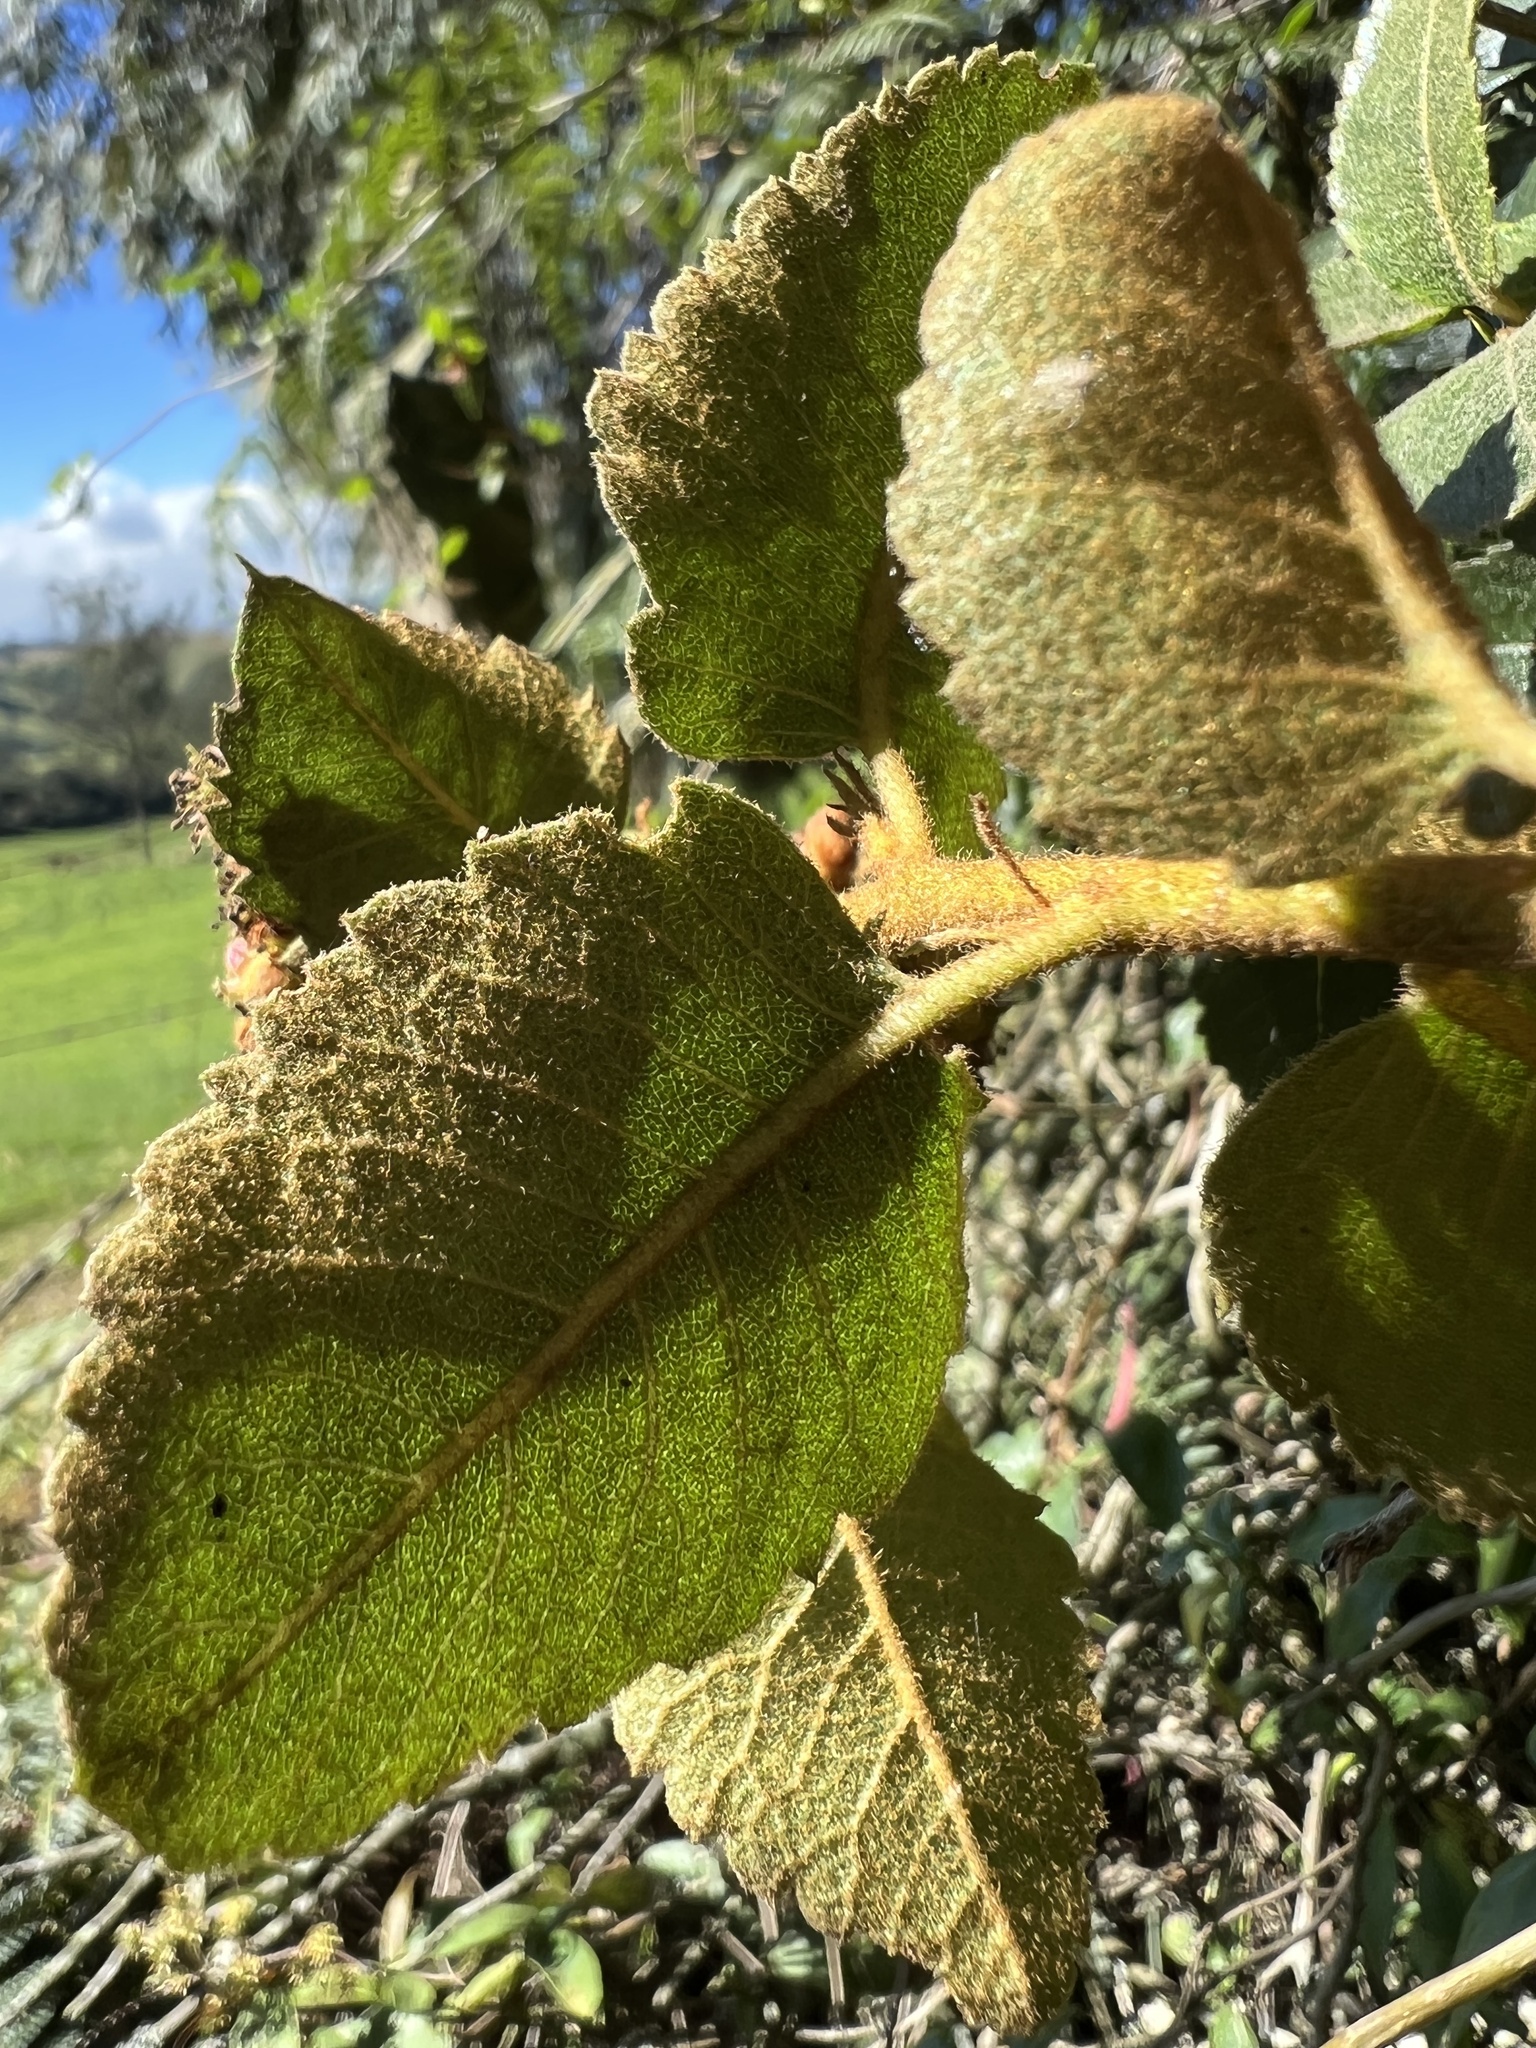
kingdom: Plantae
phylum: Tracheophyta
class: Magnoliopsida
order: Rosales
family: Rosaceae
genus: Hesperomeles
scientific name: Hesperomeles goudotiana
